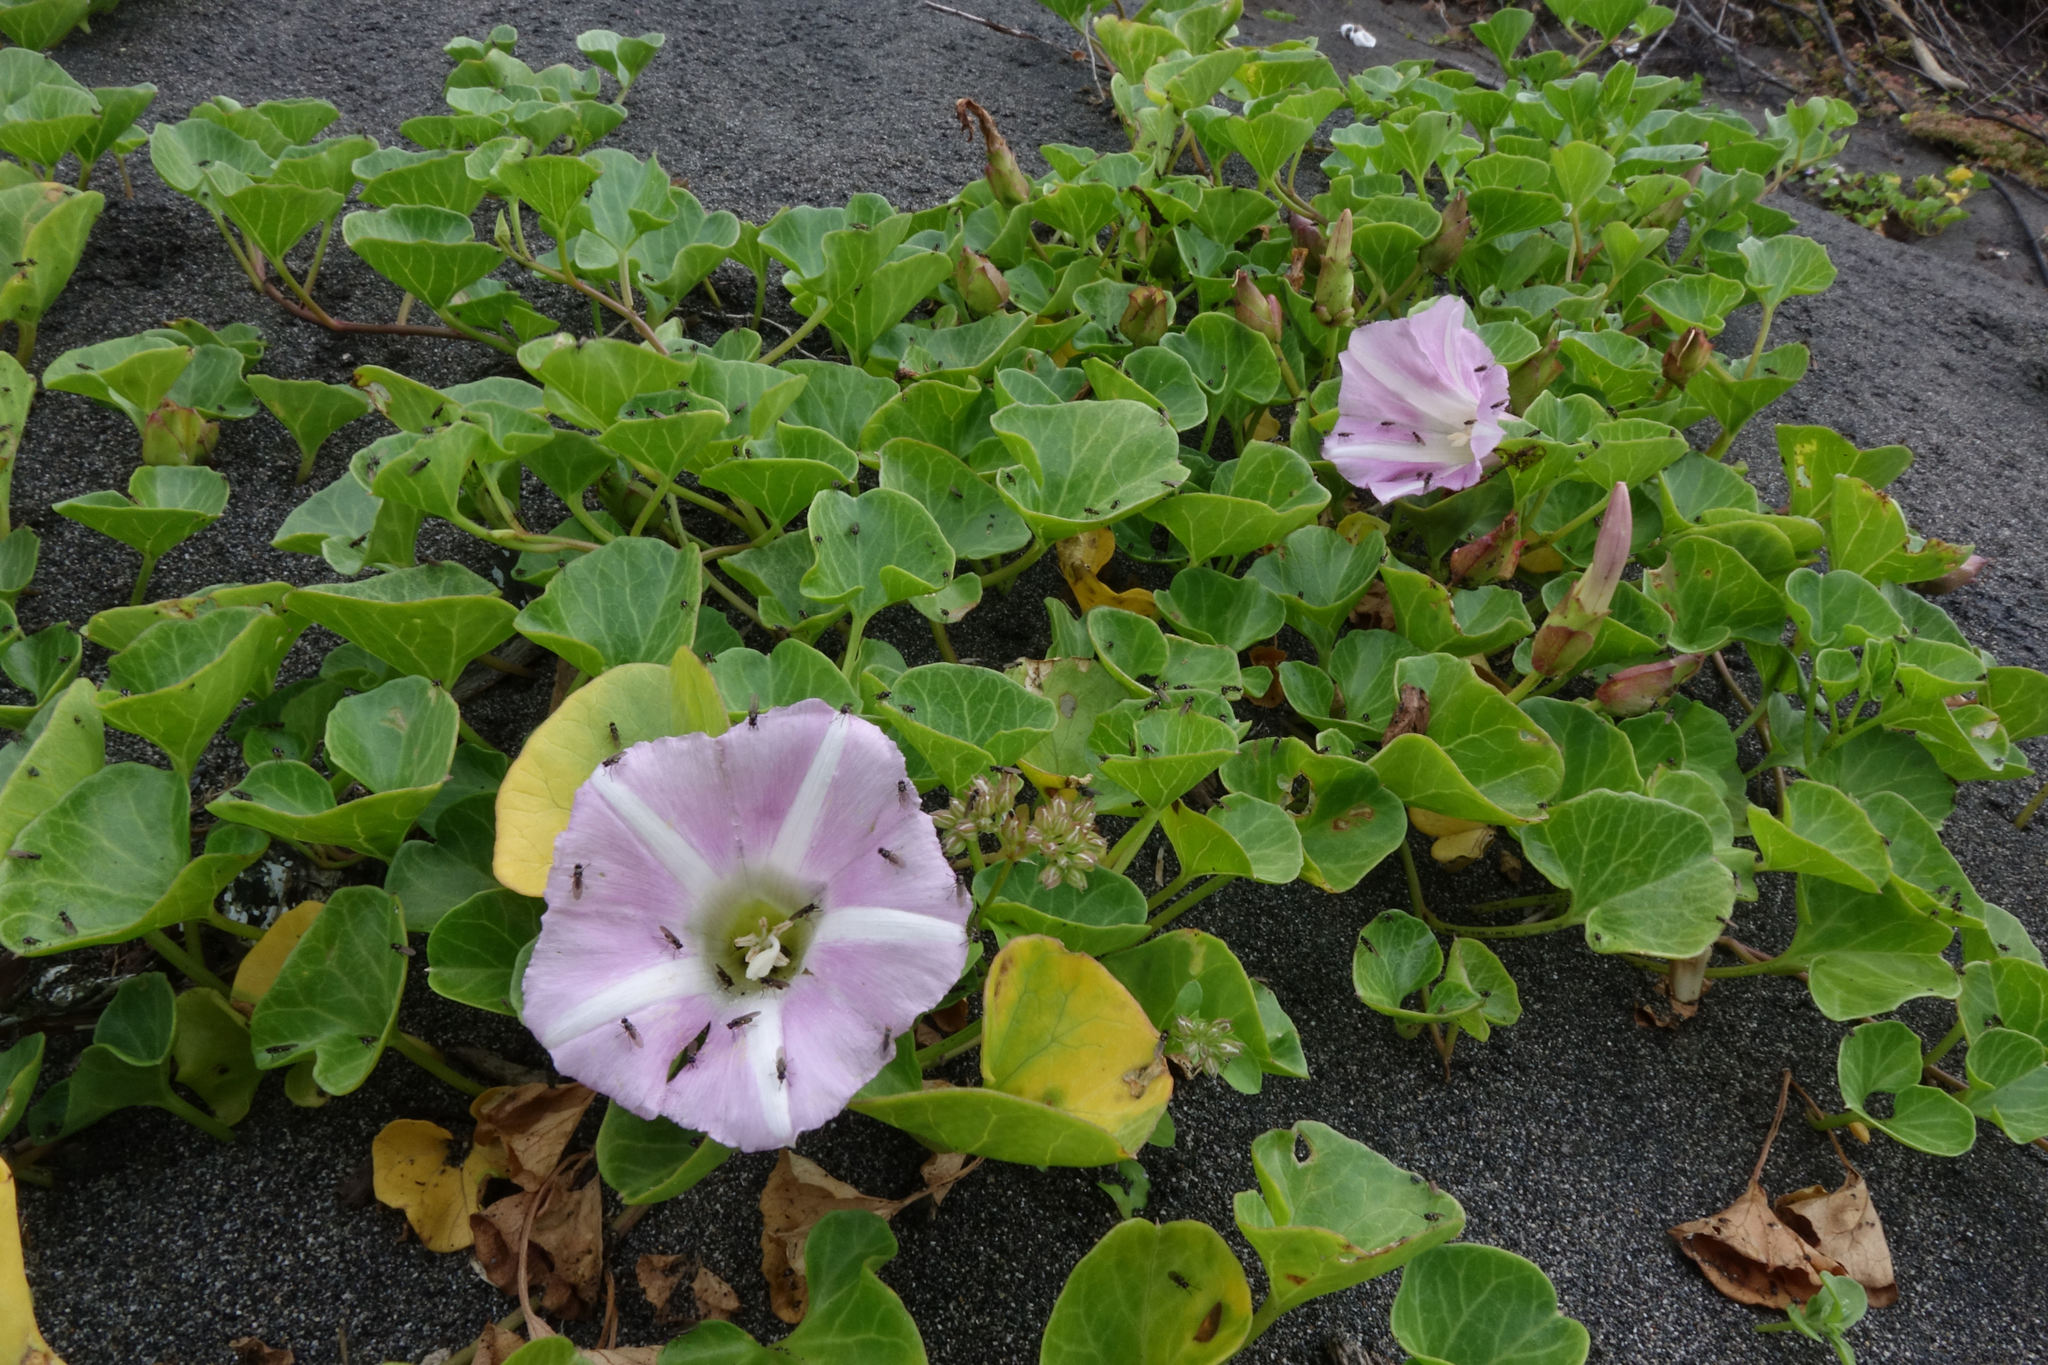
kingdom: Plantae
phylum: Tracheophyta
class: Magnoliopsida
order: Solanales
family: Convolvulaceae
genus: Calystegia
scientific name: Calystegia soldanella
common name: Sea bindweed
